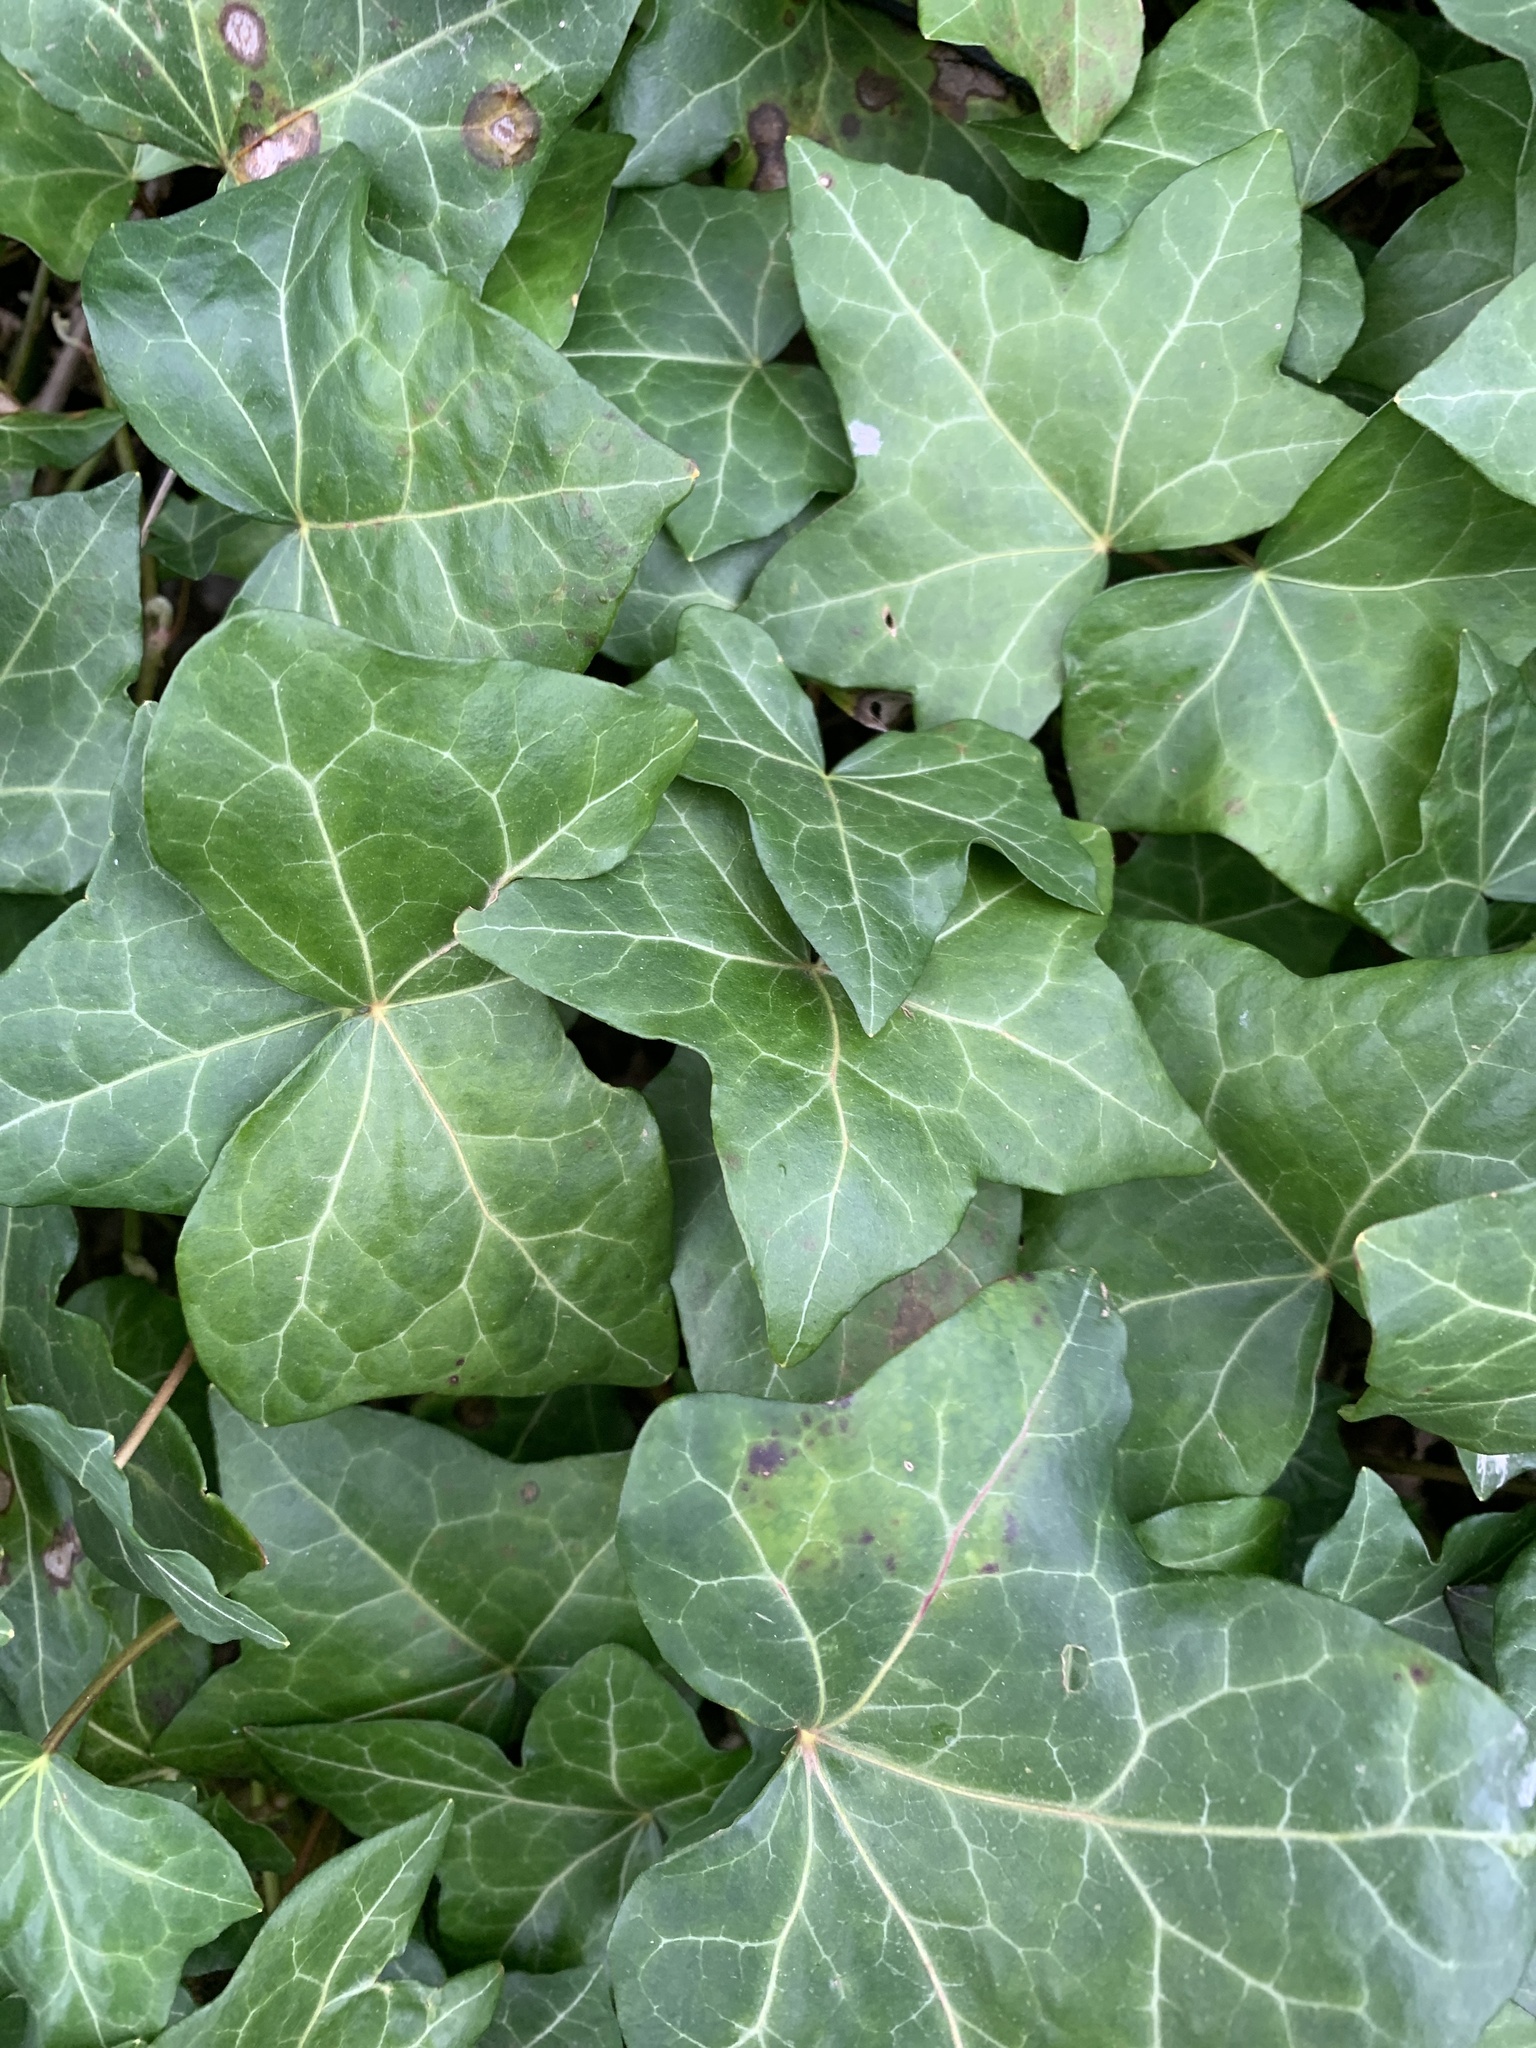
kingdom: Plantae
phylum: Tracheophyta
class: Magnoliopsida
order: Apiales
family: Araliaceae
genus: Hedera
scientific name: Hedera helix
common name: Ivy
